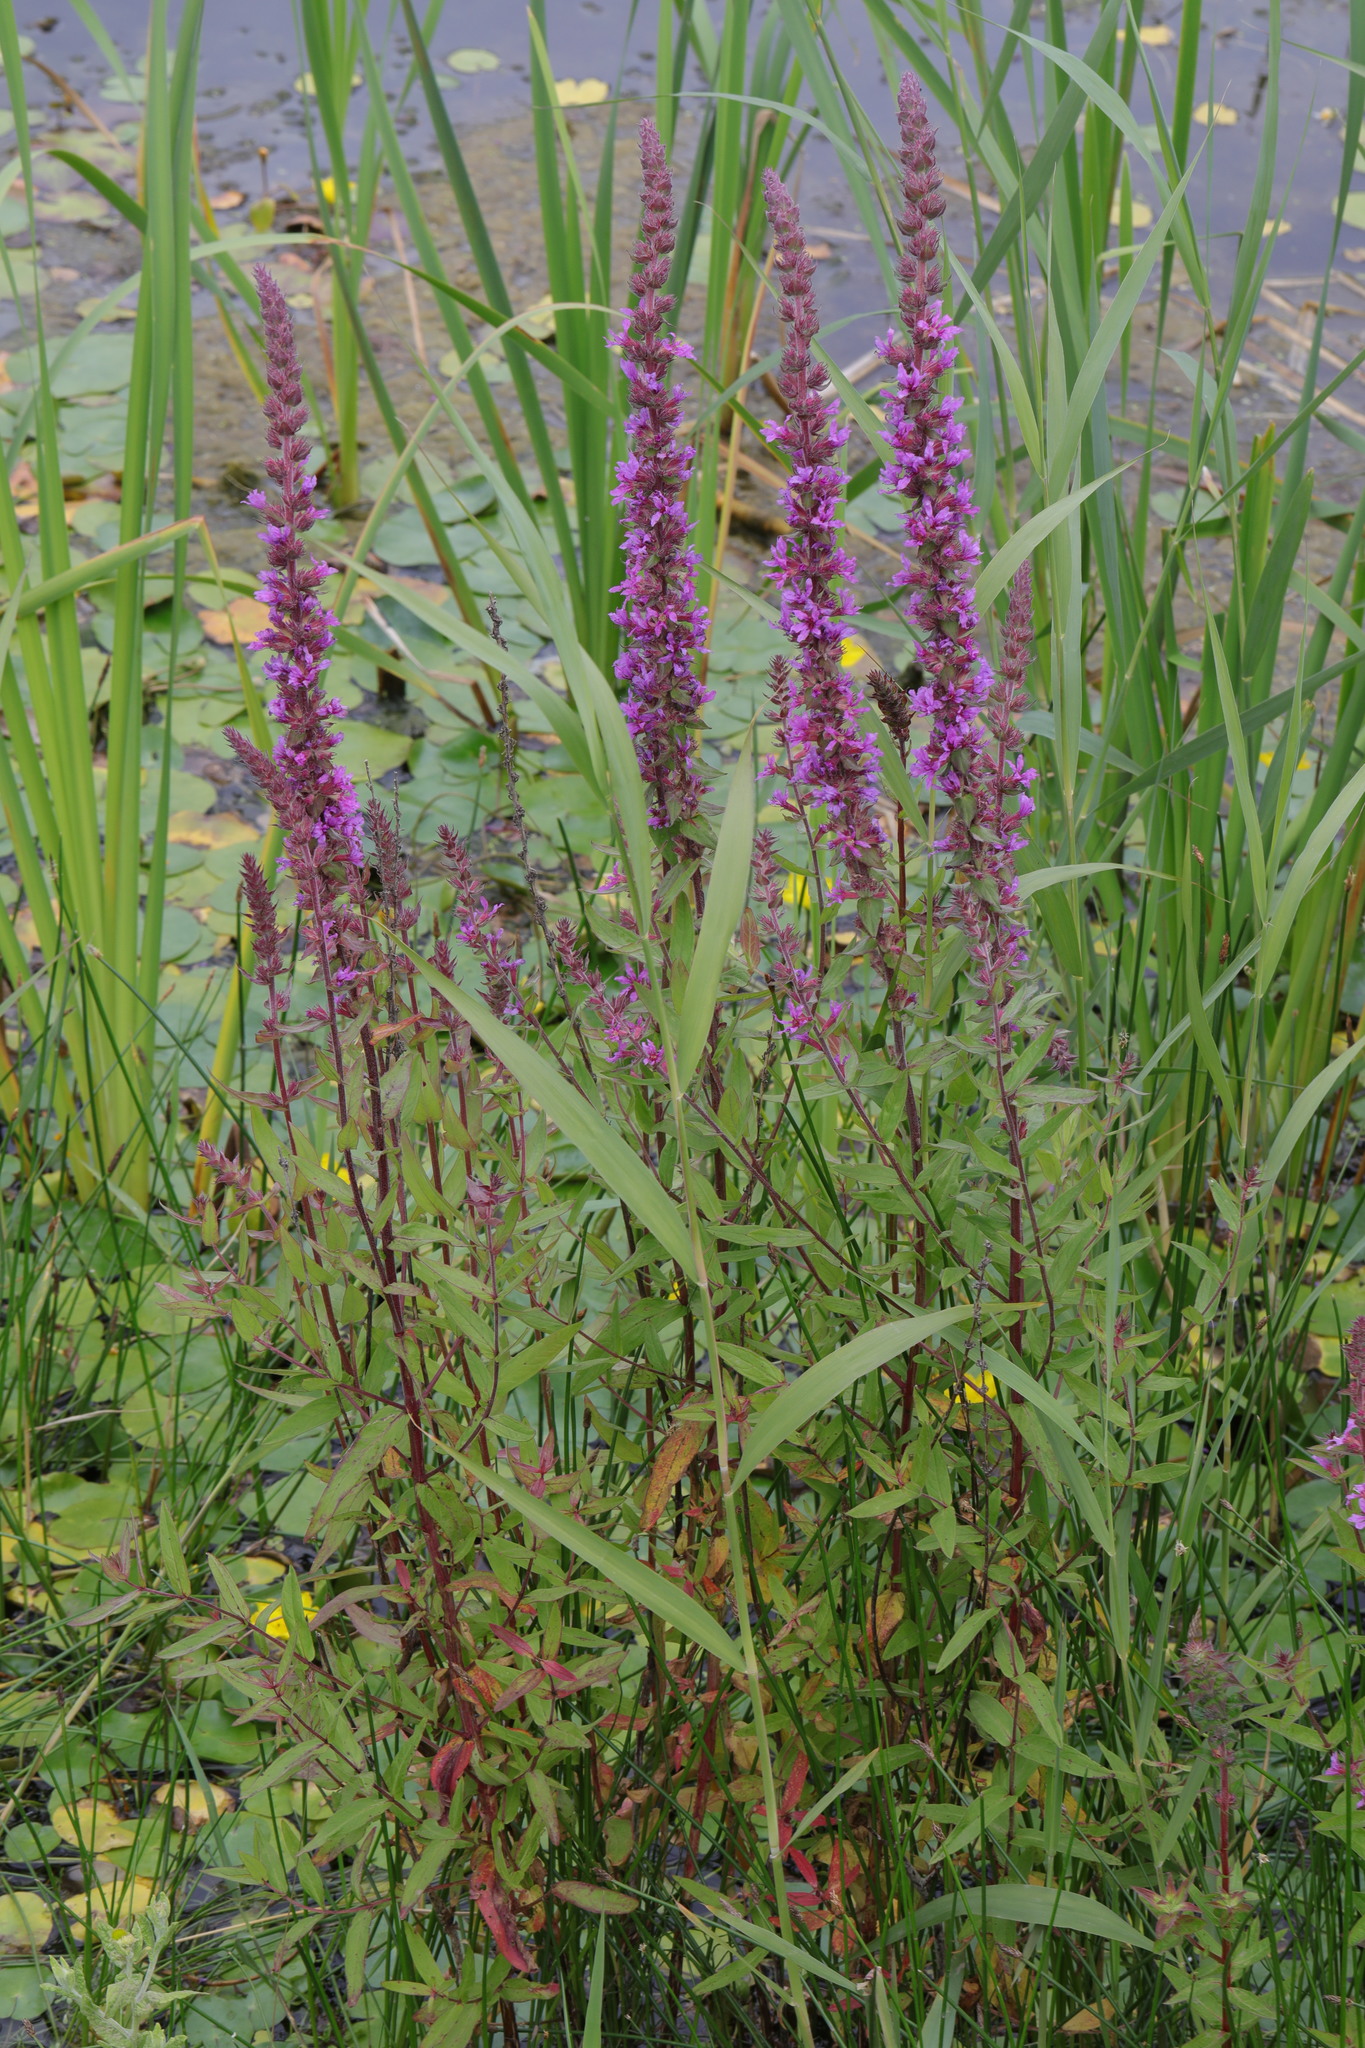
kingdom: Plantae
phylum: Tracheophyta
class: Magnoliopsida
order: Myrtales
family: Lythraceae
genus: Lythrum
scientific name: Lythrum salicaria
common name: Purple loosestrife
